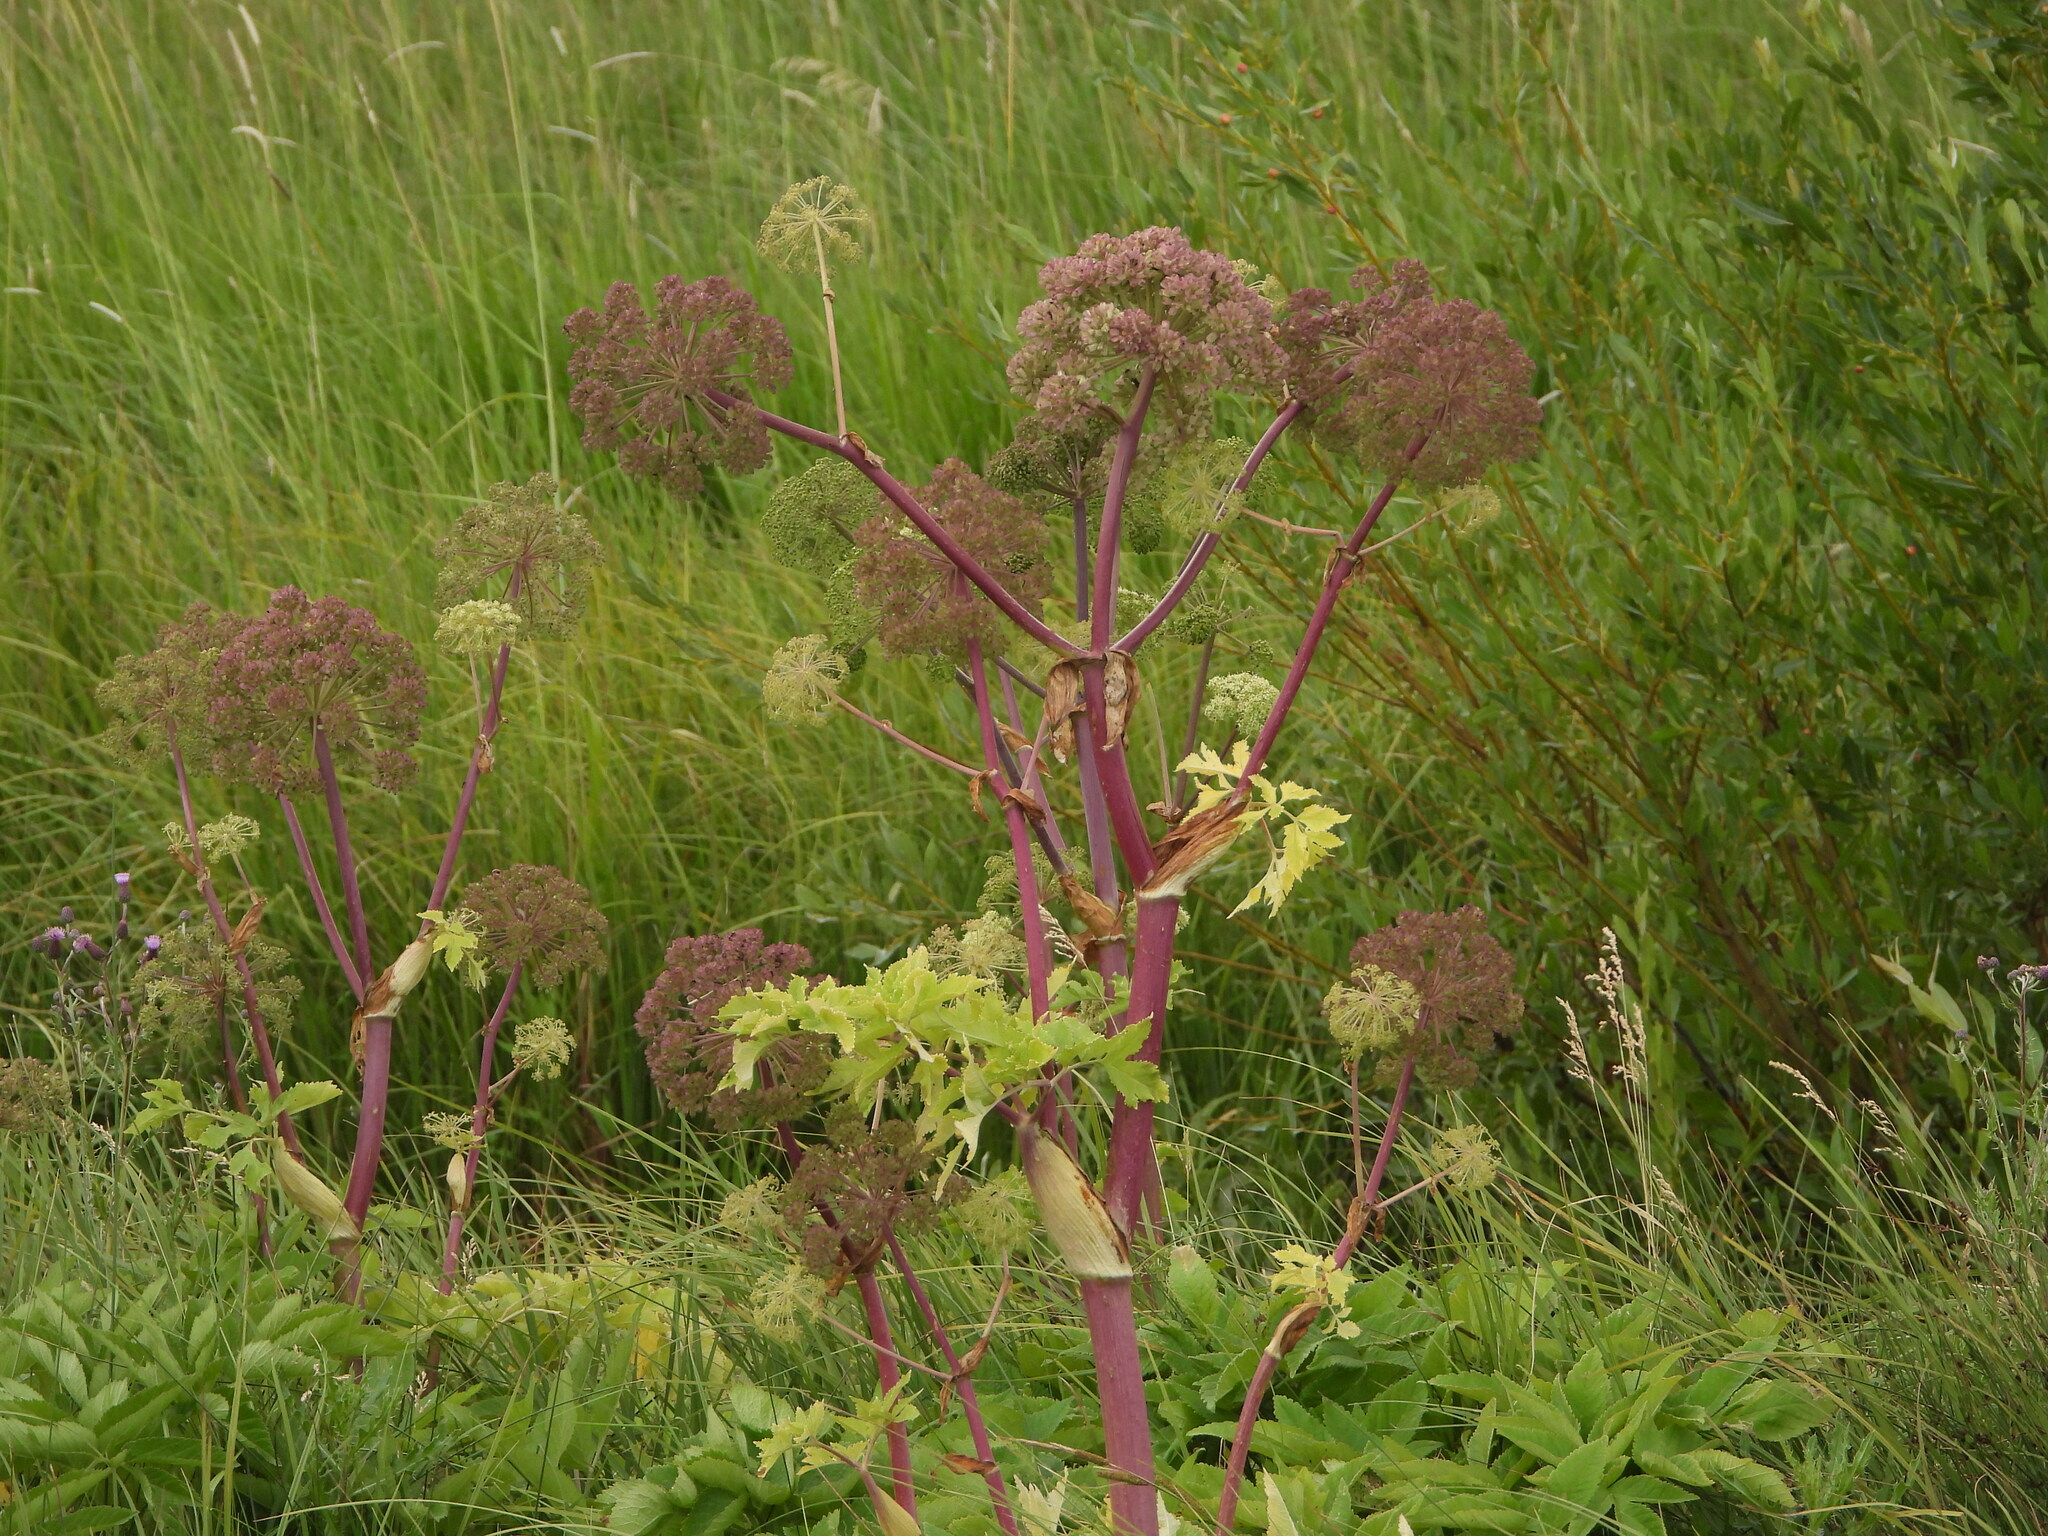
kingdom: Plantae
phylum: Tracheophyta
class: Magnoliopsida
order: Apiales
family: Apiaceae
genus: Angelica
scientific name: Angelica ampla
